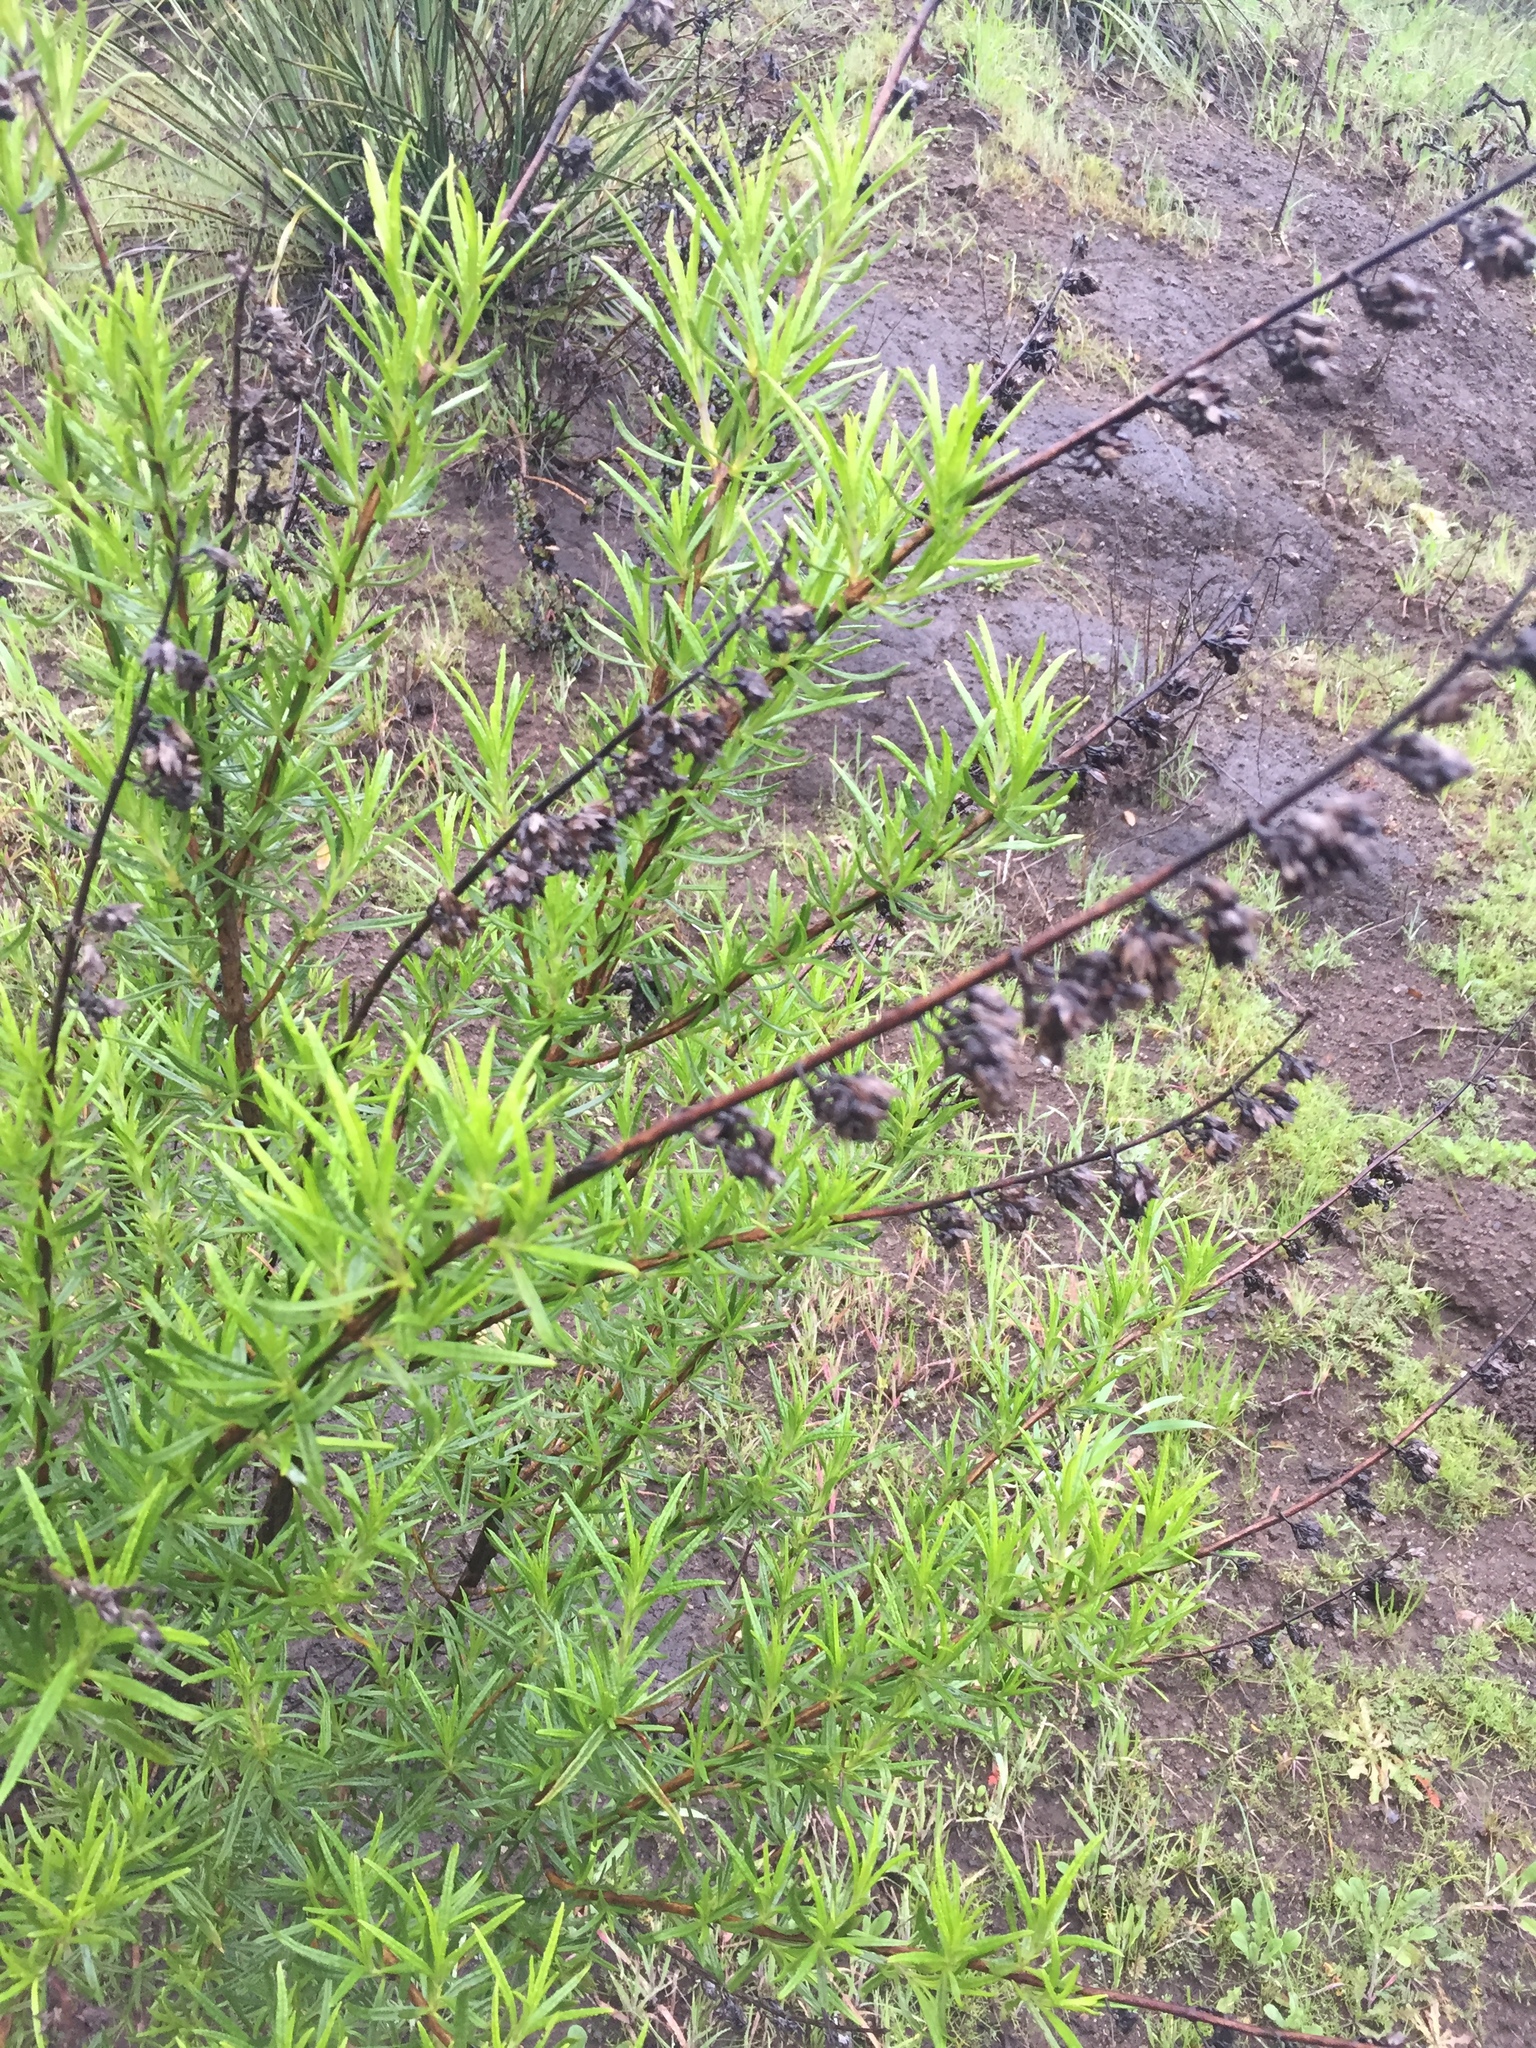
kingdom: Plantae
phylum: Tracheophyta
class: Magnoliopsida
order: Lamiales
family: Lamiaceae
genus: Trichostema
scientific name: Trichostema lanatum
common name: Woolly bluecurls
